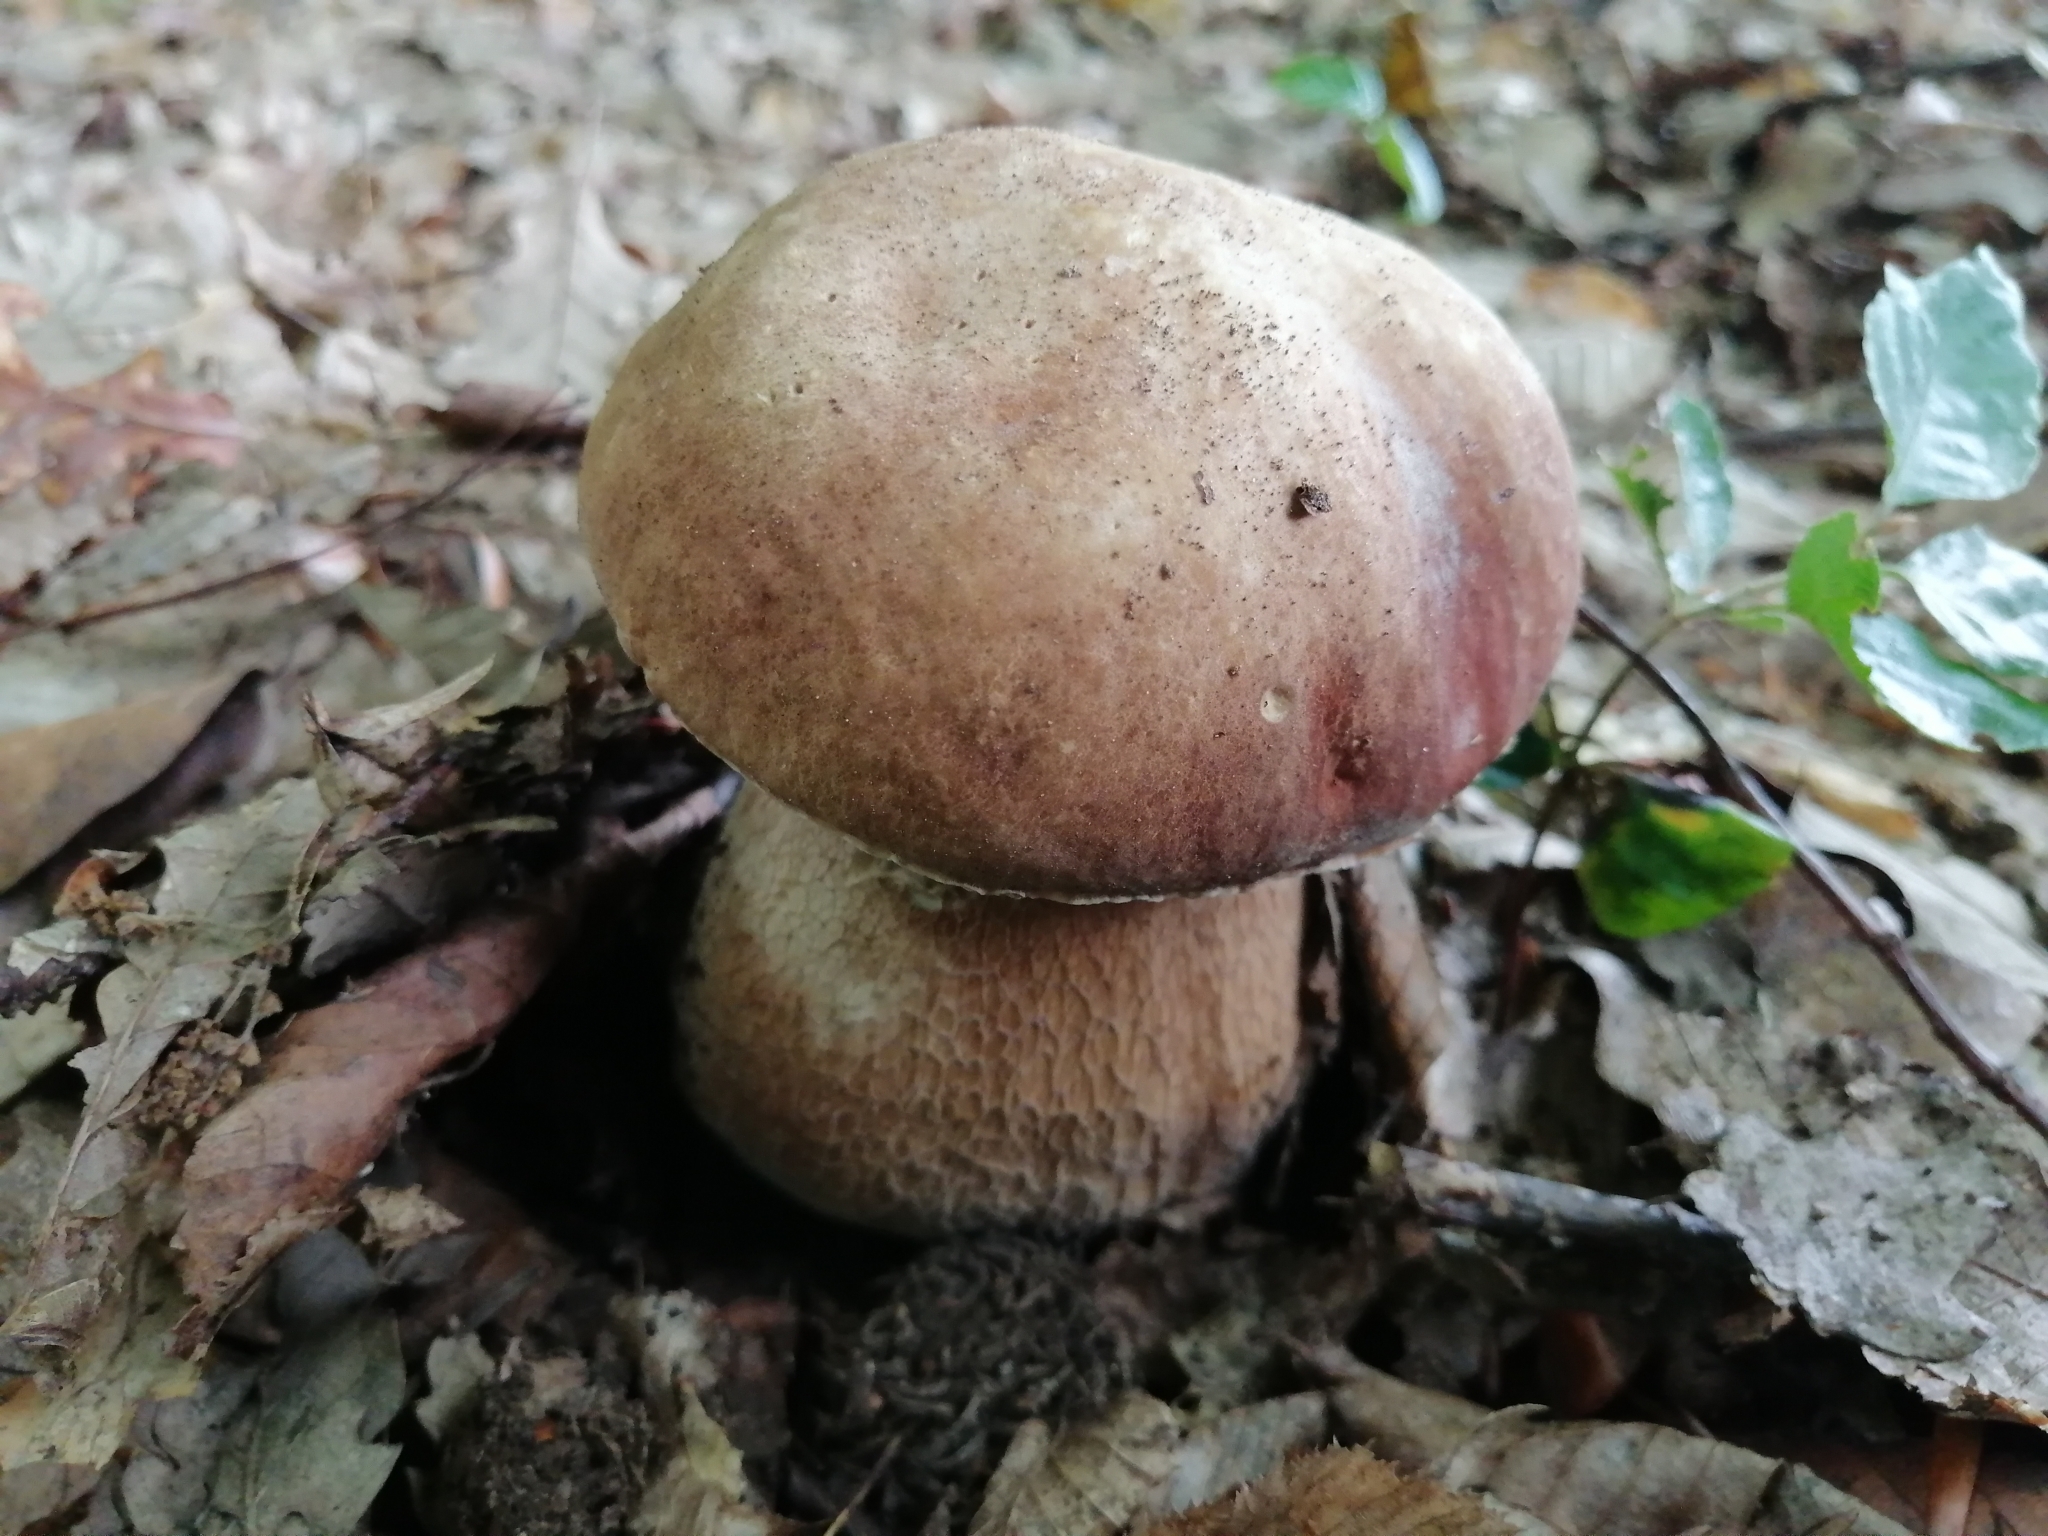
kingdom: Fungi
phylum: Basidiomycota
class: Agaricomycetes
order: Boletales
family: Boletaceae
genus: Boletus
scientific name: Boletus reticulatus
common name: Summer bolete
